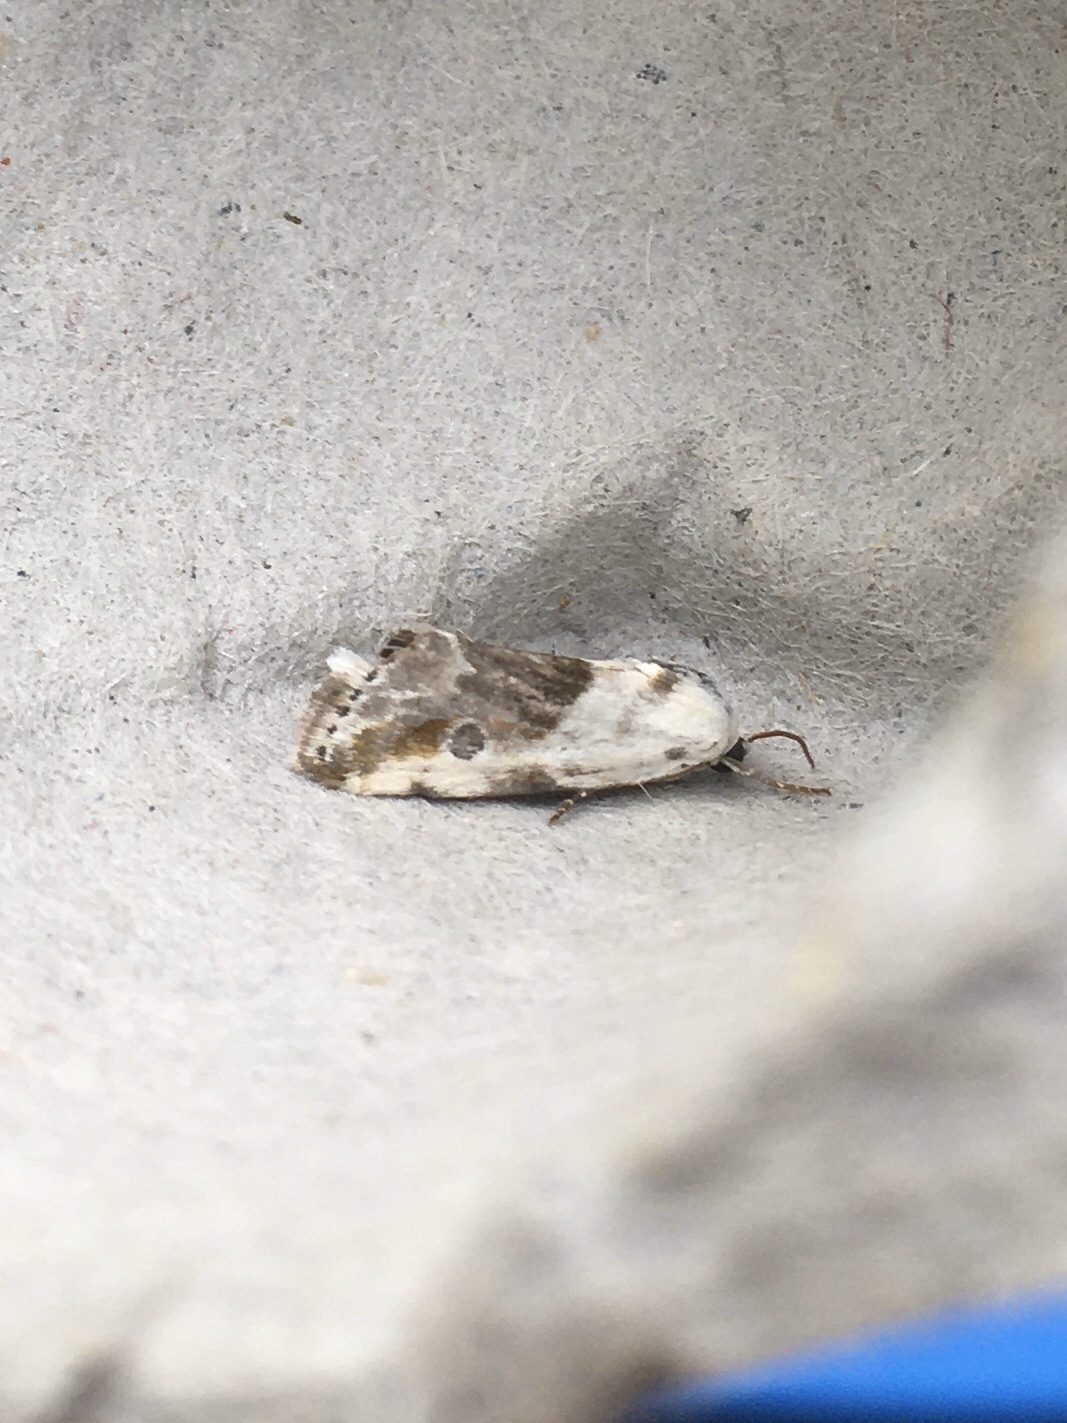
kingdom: Animalia
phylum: Arthropoda
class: Insecta
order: Lepidoptera
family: Noctuidae
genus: Acontia
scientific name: Acontia candefacta
